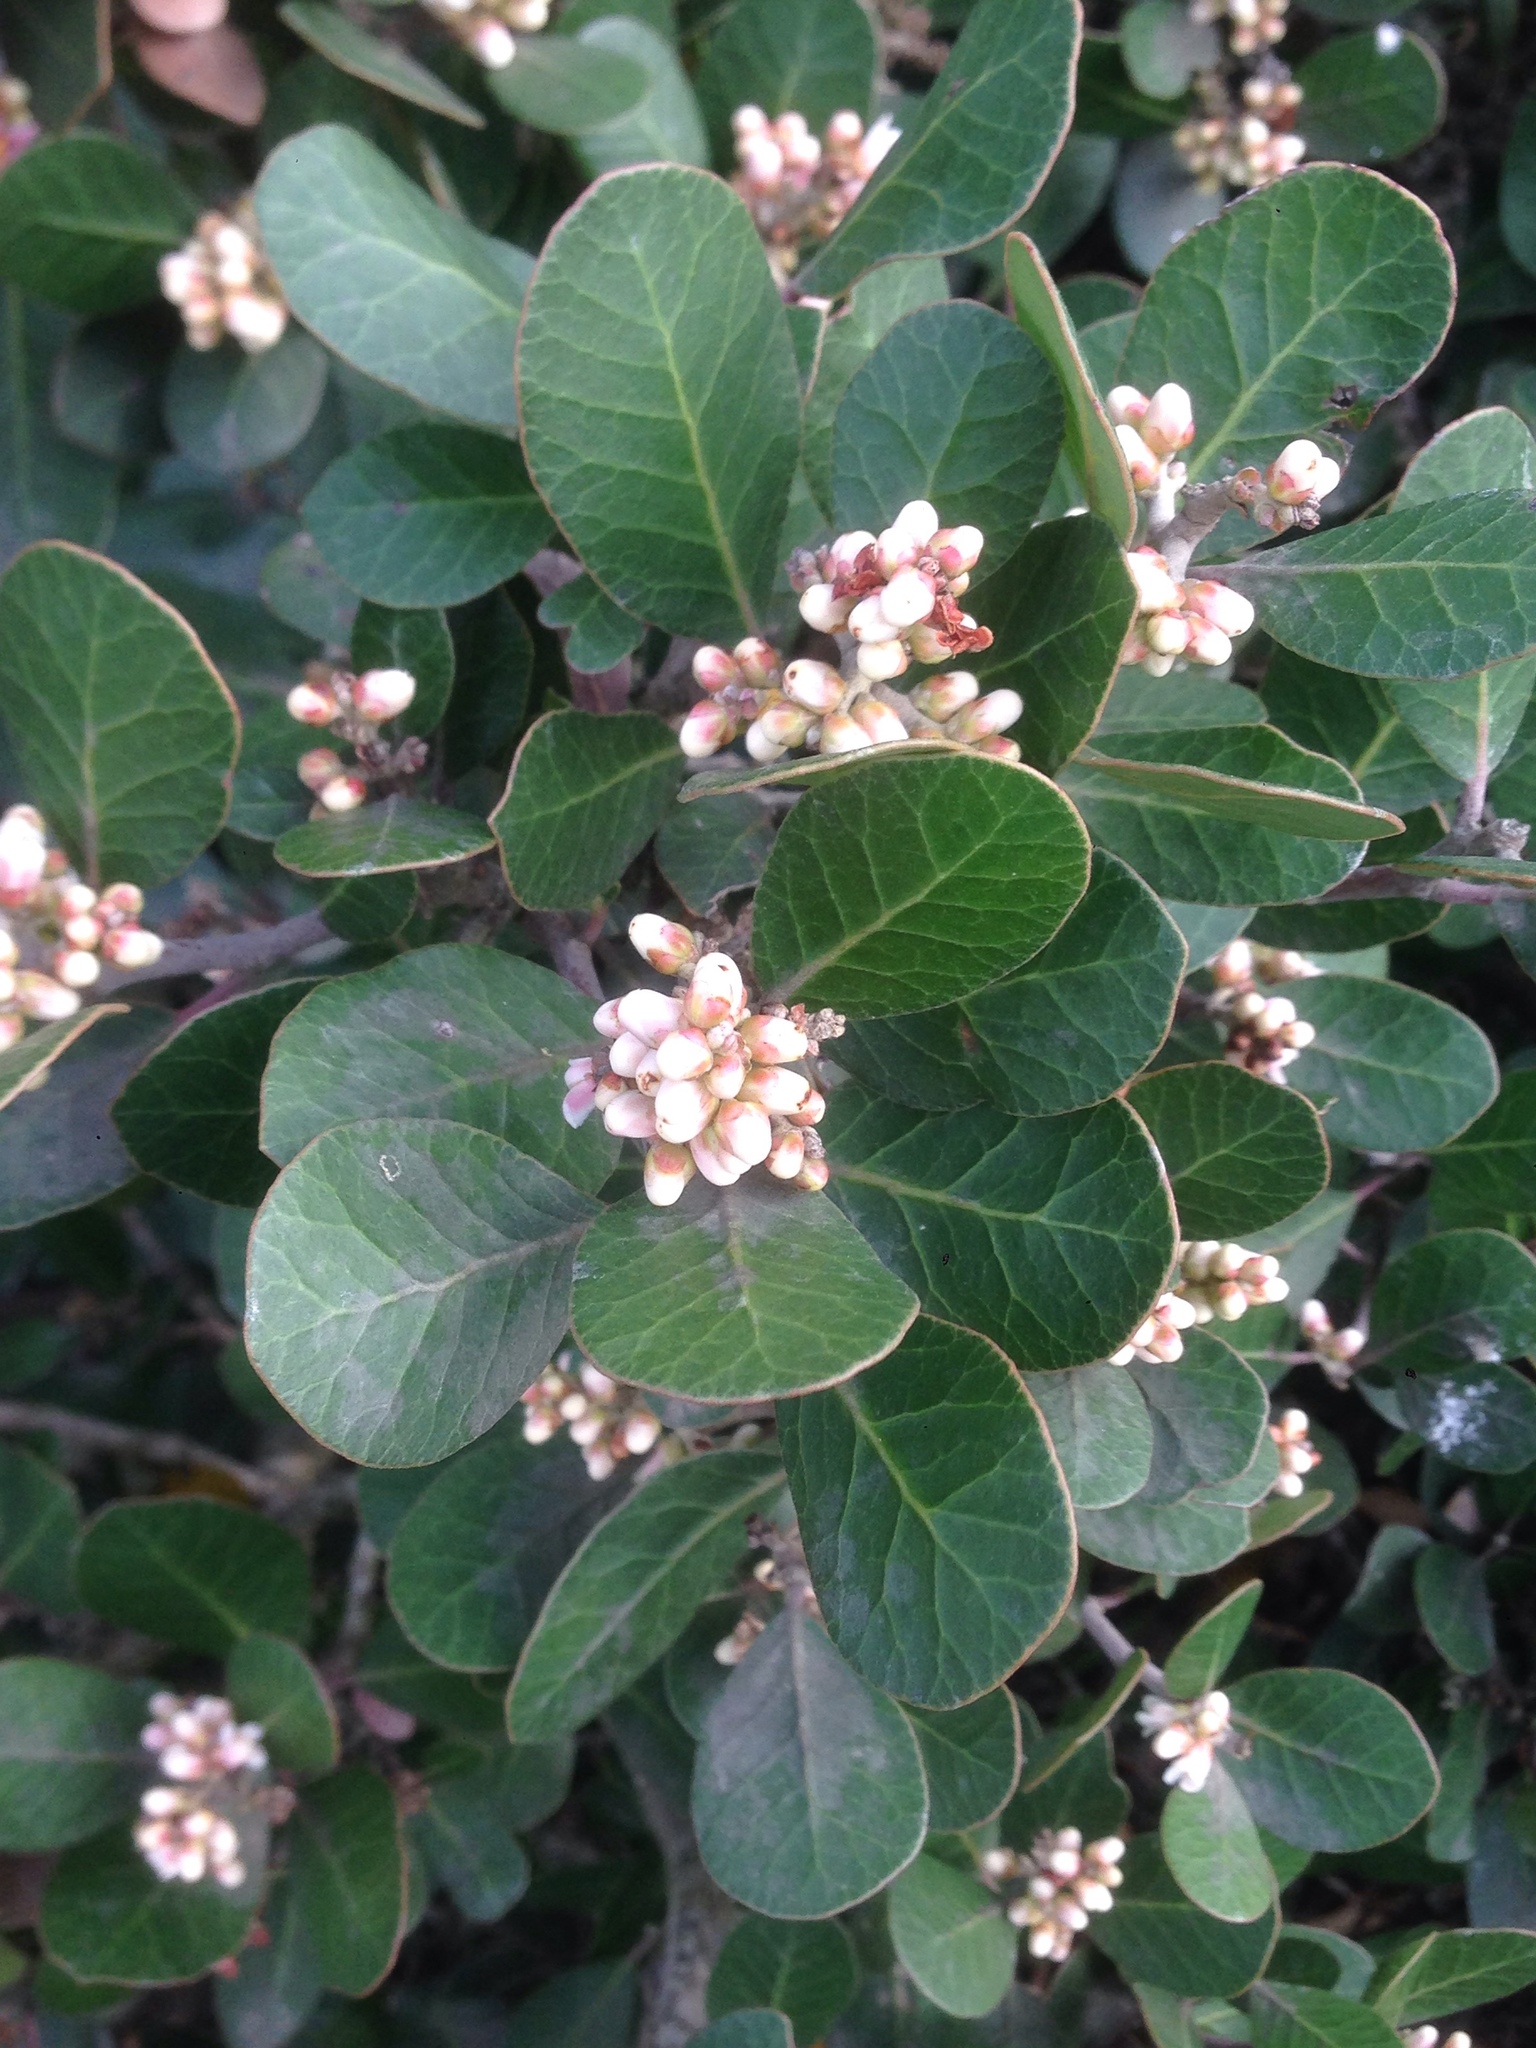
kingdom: Plantae
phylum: Tracheophyta
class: Magnoliopsida
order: Sapindales
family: Anacardiaceae
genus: Rhus
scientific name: Rhus integrifolia
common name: Lemonade sumac
